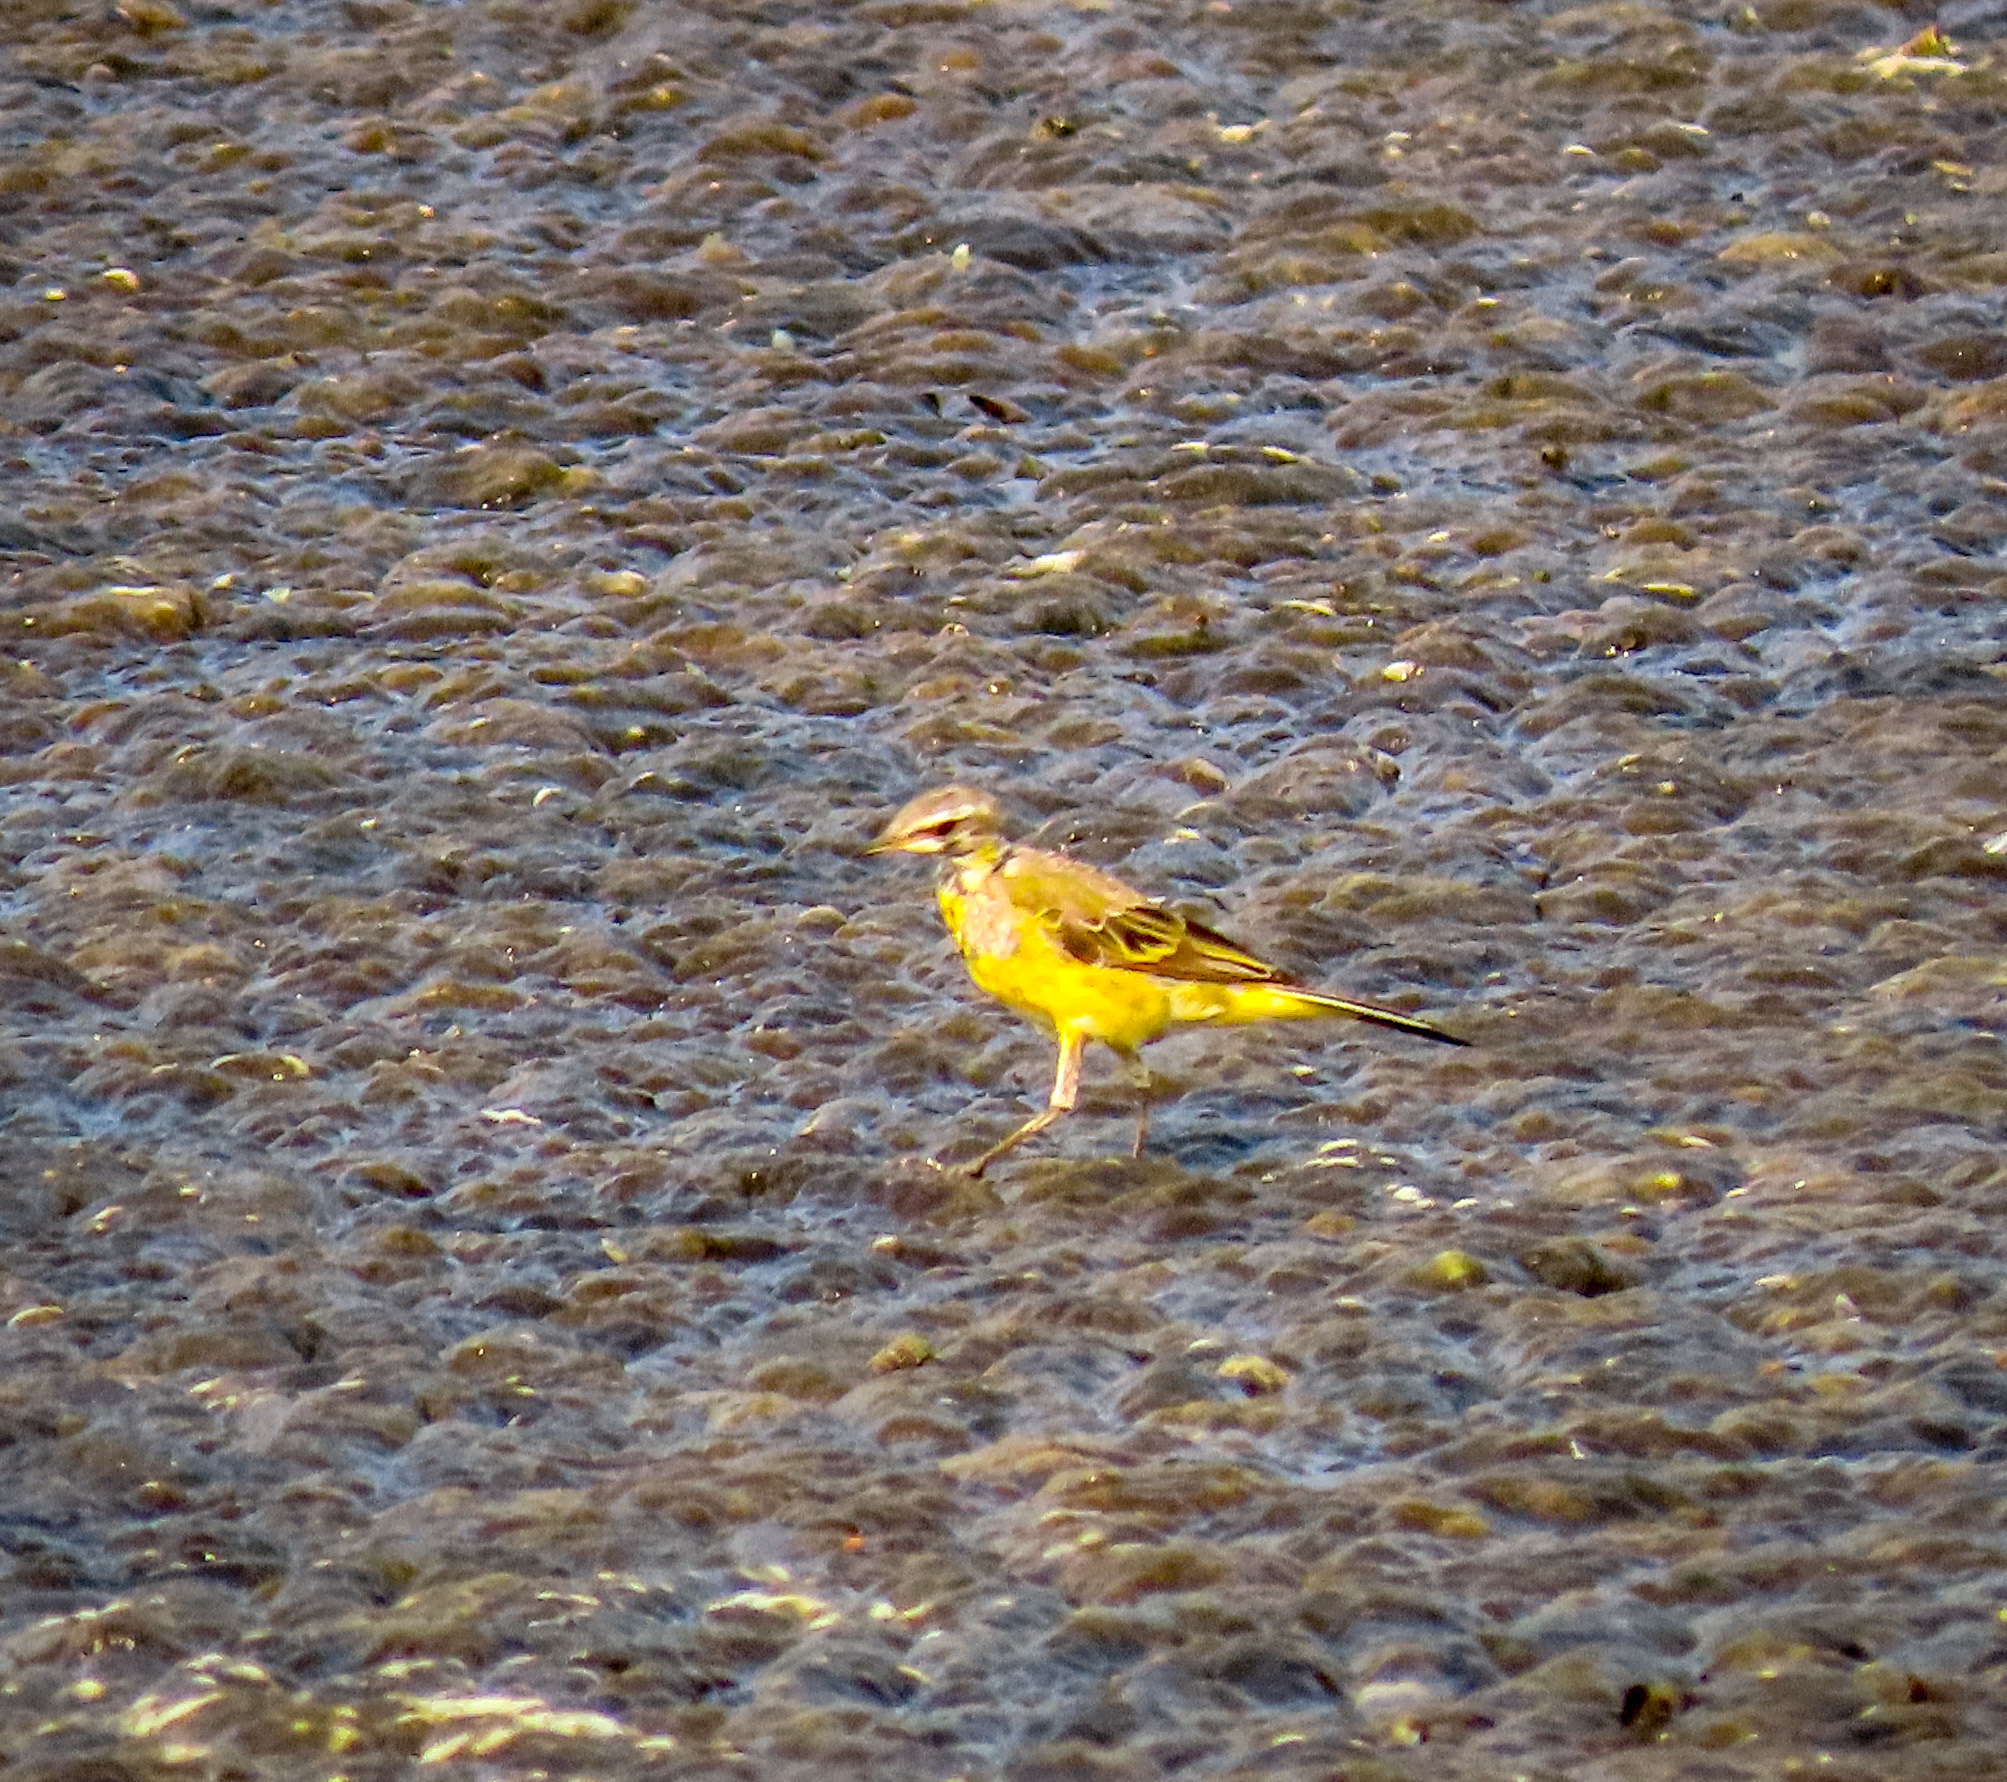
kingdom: Animalia
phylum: Chordata
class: Aves
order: Passeriformes
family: Motacillidae
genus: Motacilla
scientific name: Motacilla tschutschensis
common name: Eastern yellow wagtail
